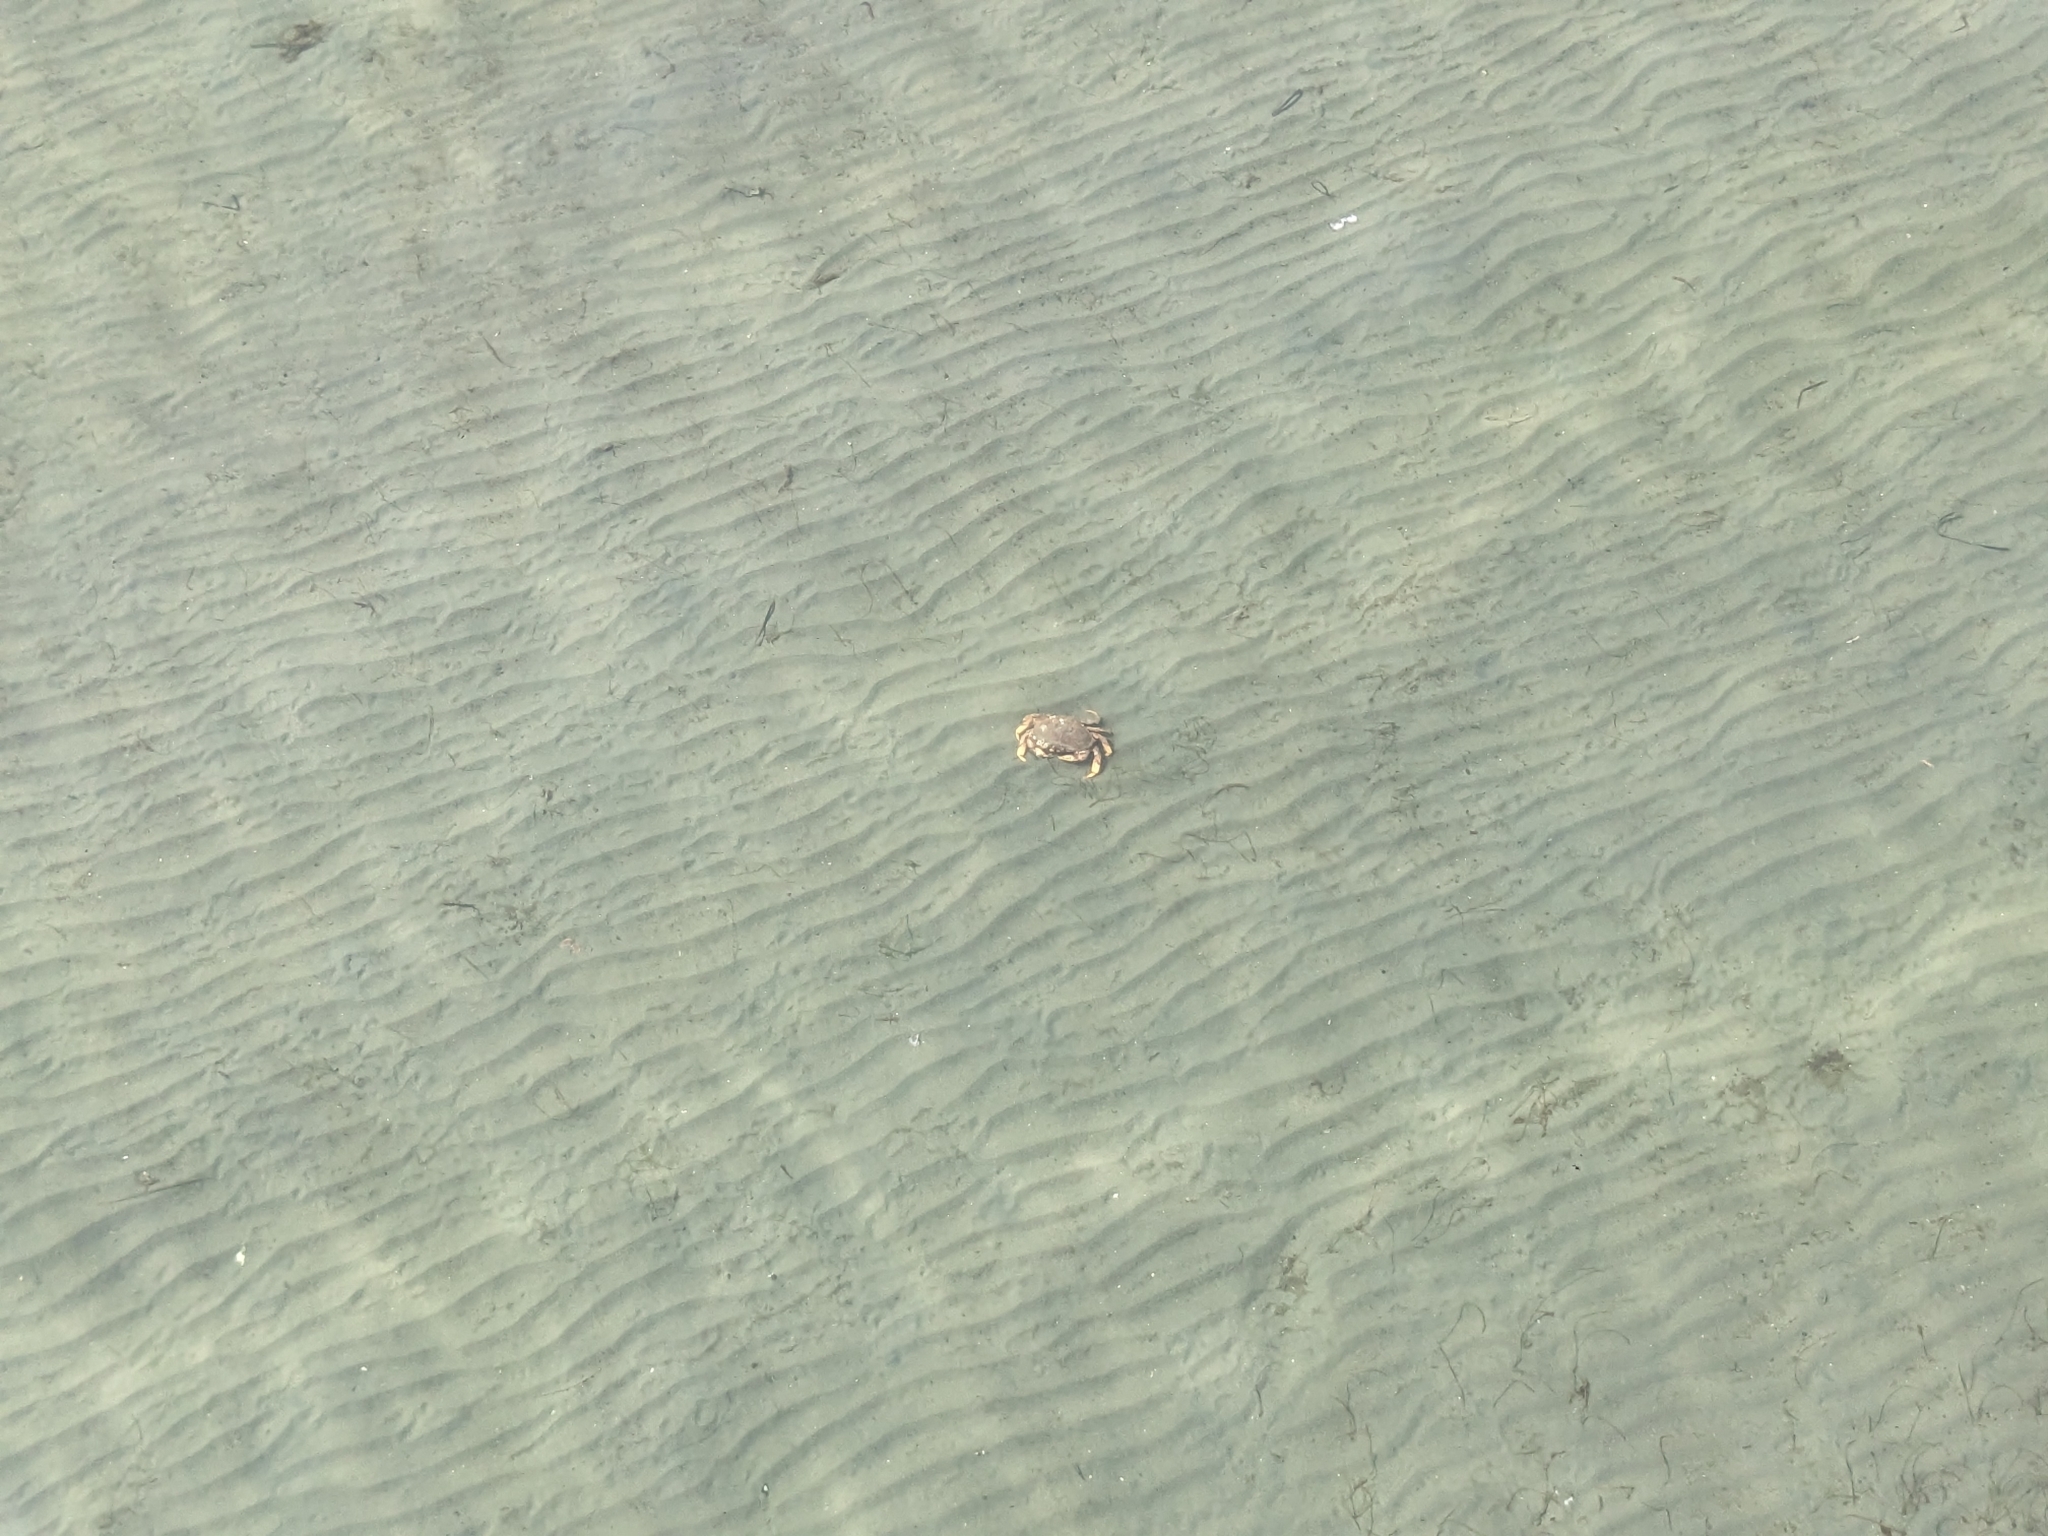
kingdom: Animalia
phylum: Arthropoda
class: Malacostraca
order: Decapoda
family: Cancridae
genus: Metacarcinus
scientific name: Metacarcinus magister
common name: Californian crab
